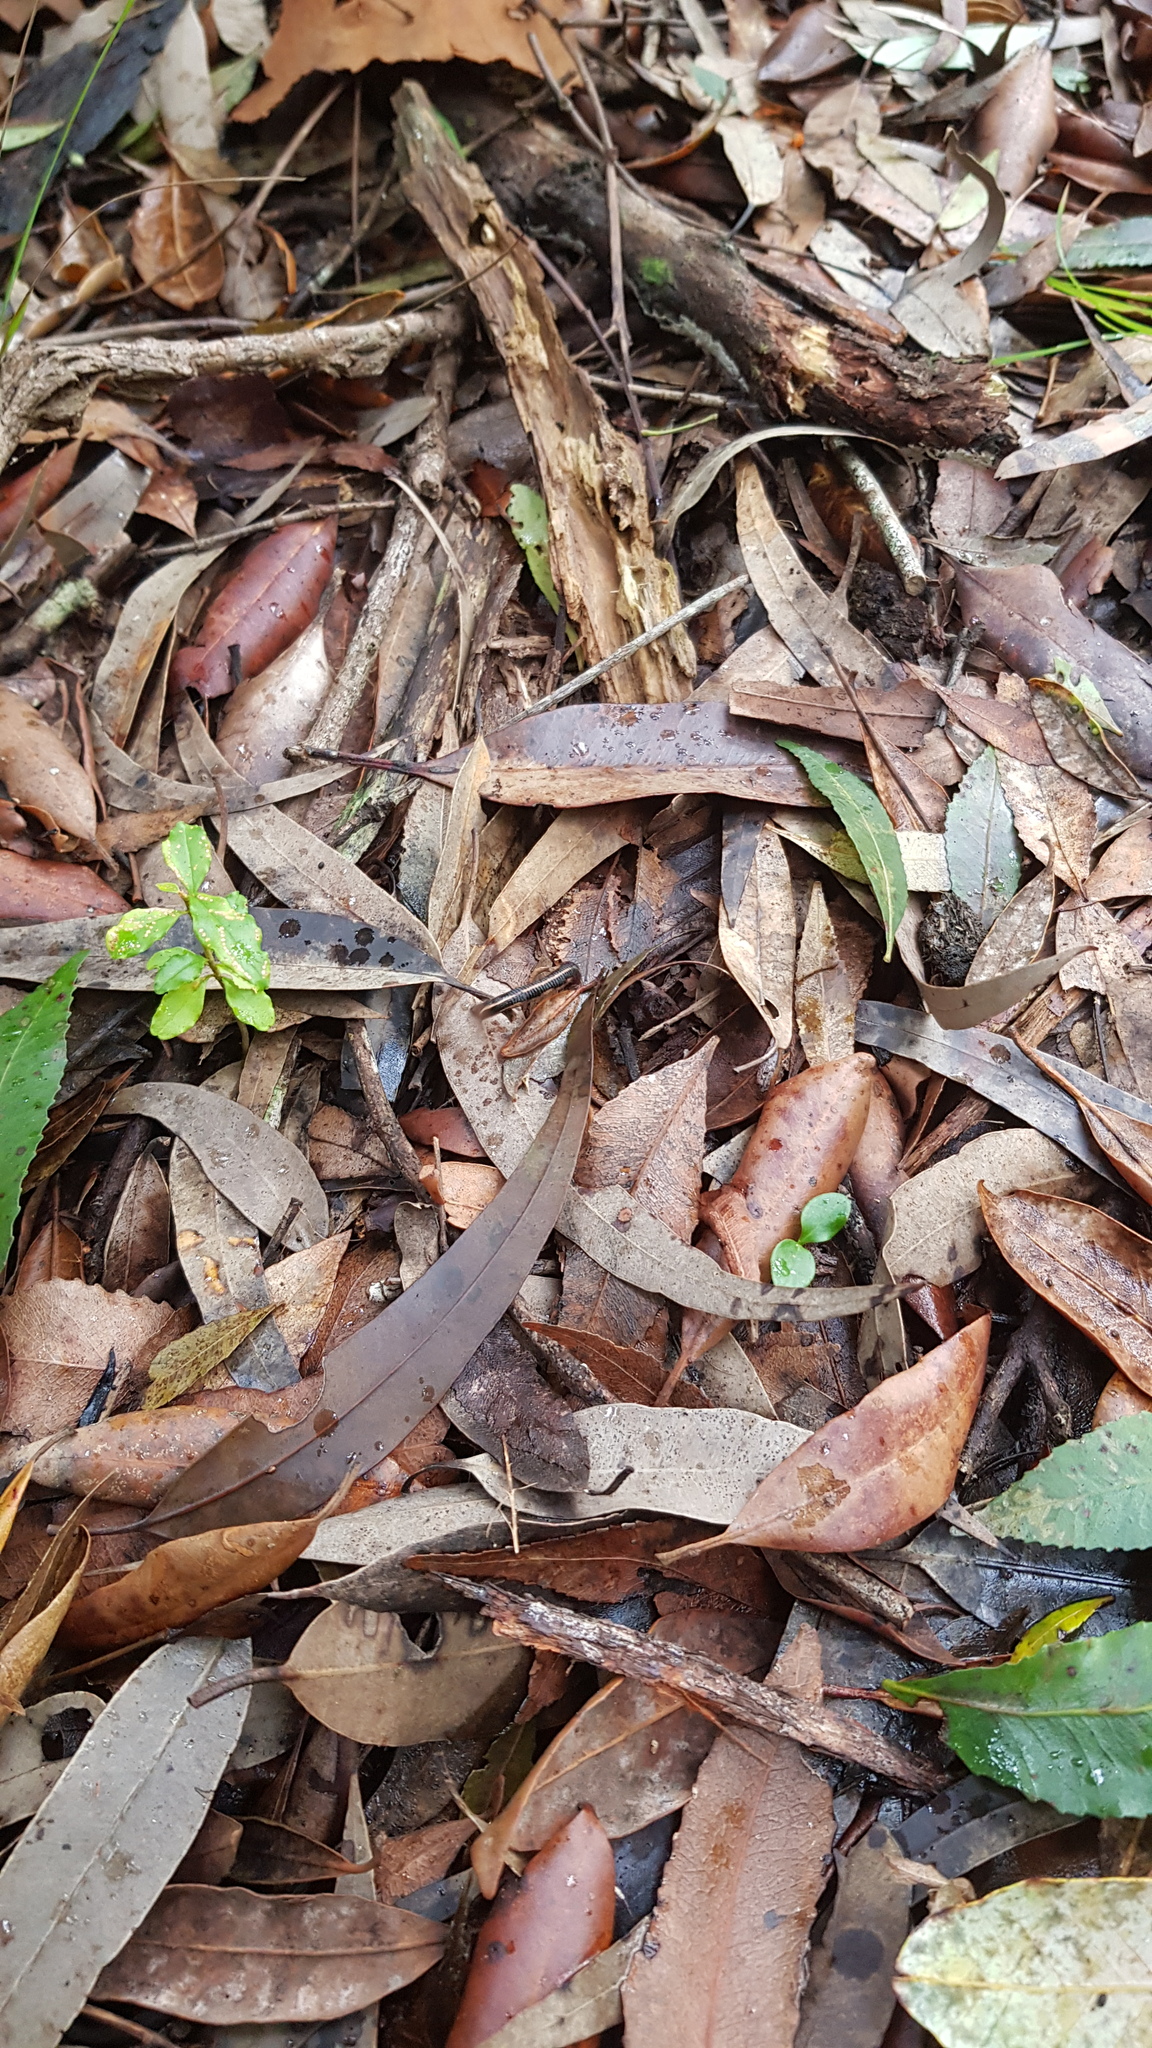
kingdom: Animalia
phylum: Annelida
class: Clitellata
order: Arhynchobdellida
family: Haemadipsidae
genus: Chtonobdella
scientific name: Chtonobdella limbata
